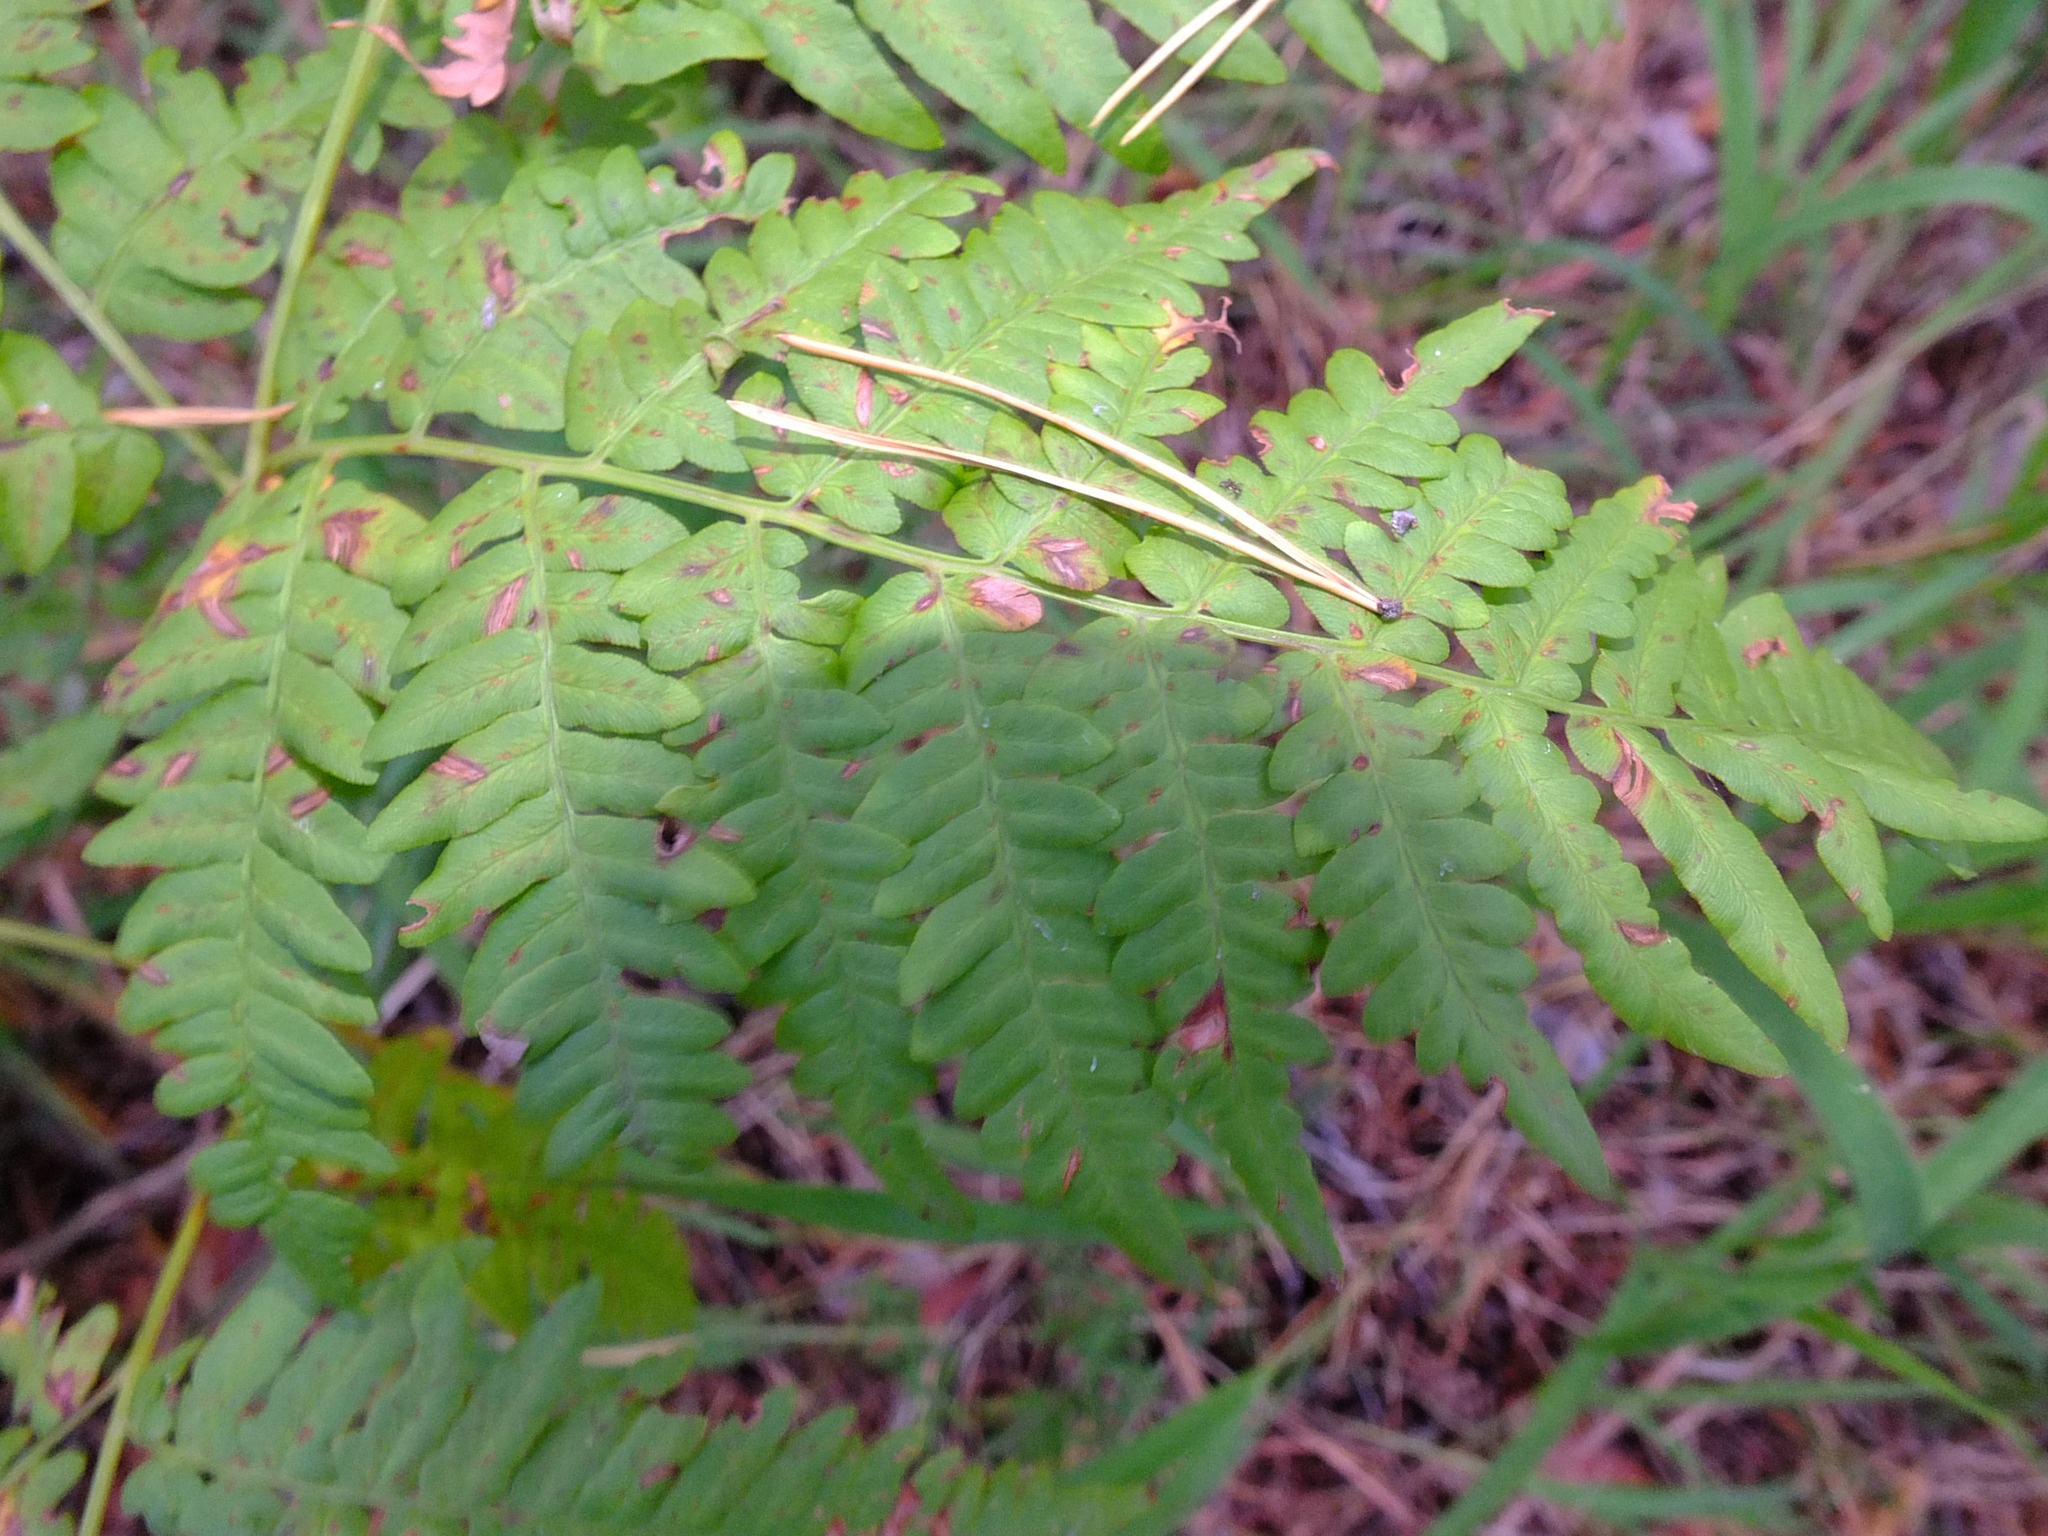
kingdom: Plantae
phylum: Tracheophyta
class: Polypodiopsida
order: Polypodiales
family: Dennstaedtiaceae
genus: Pteridium
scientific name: Pteridium aquilinum
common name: Bracken
